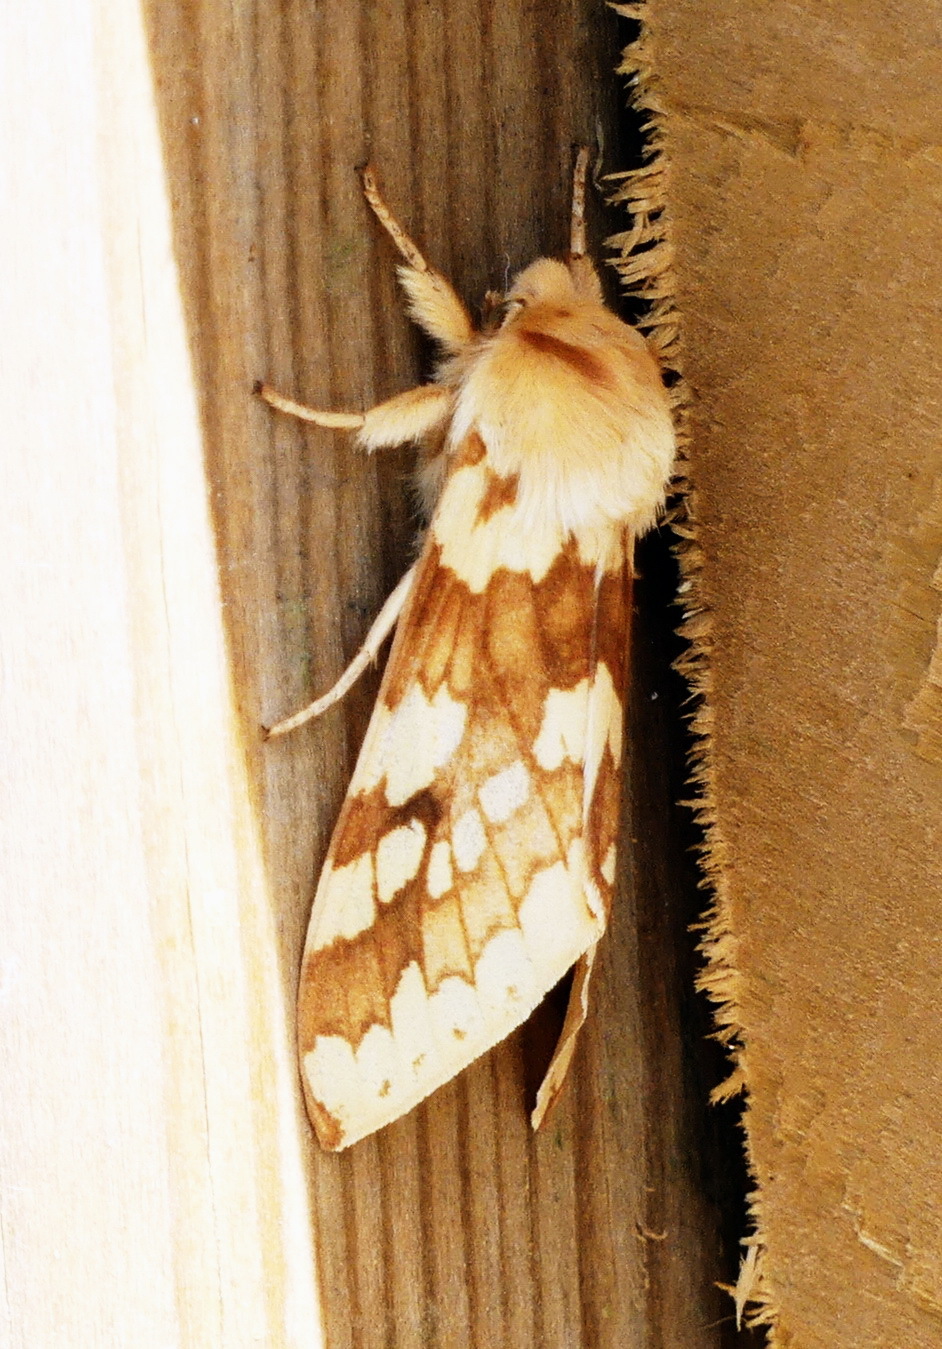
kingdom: Animalia
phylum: Arthropoda
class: Insecta
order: Lepidoptera
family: Erebidae
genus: Lophocampa
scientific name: Lophocampa maculata
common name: Spotted tussock moth
